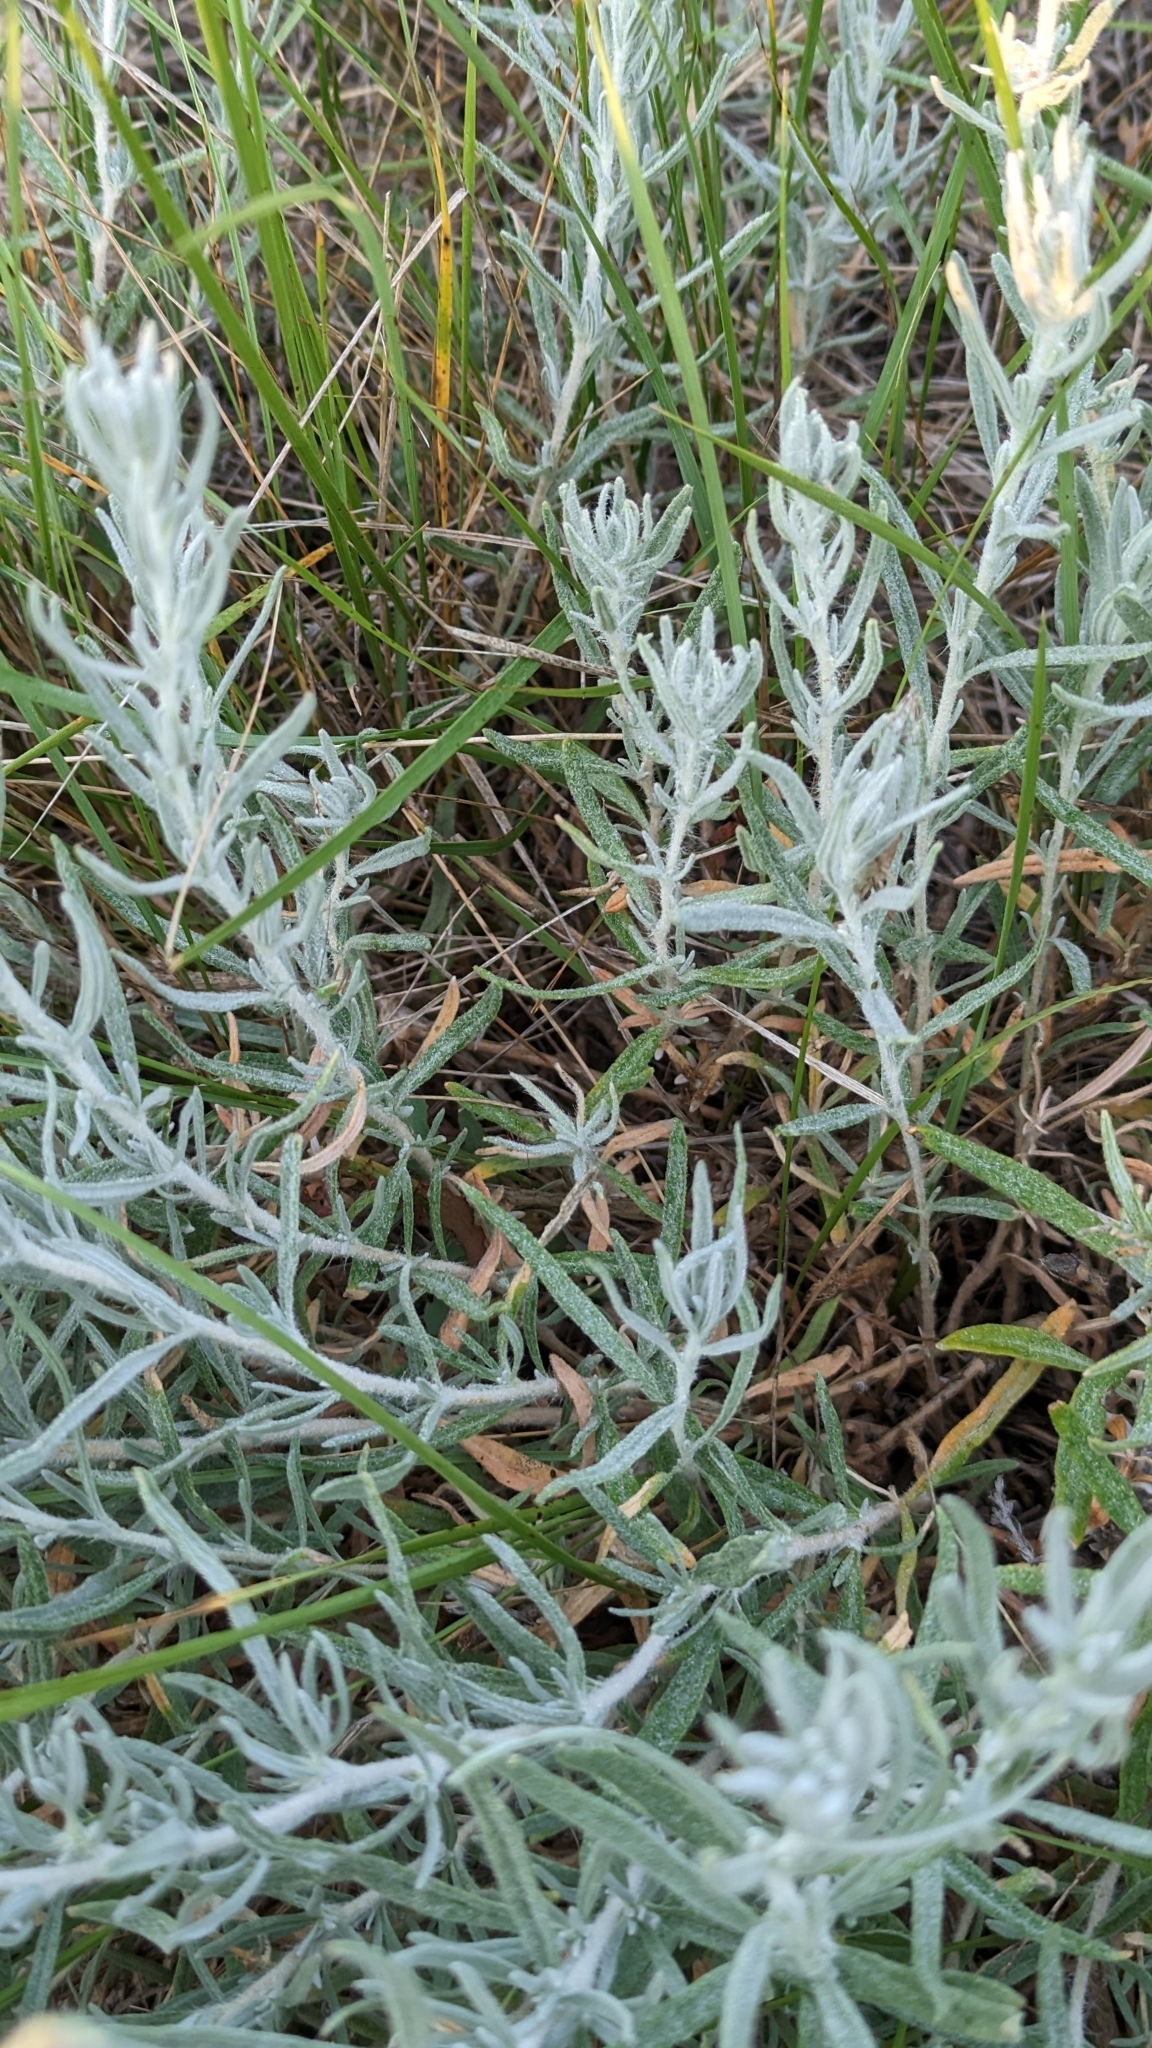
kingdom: Plantae
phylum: Tracheophyta
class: Magnoliopsida
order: Caryophyllales
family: Amaranthaceae
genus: Krascheninnikovia
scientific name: Krascheninnikovia lanata
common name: Winterfat
